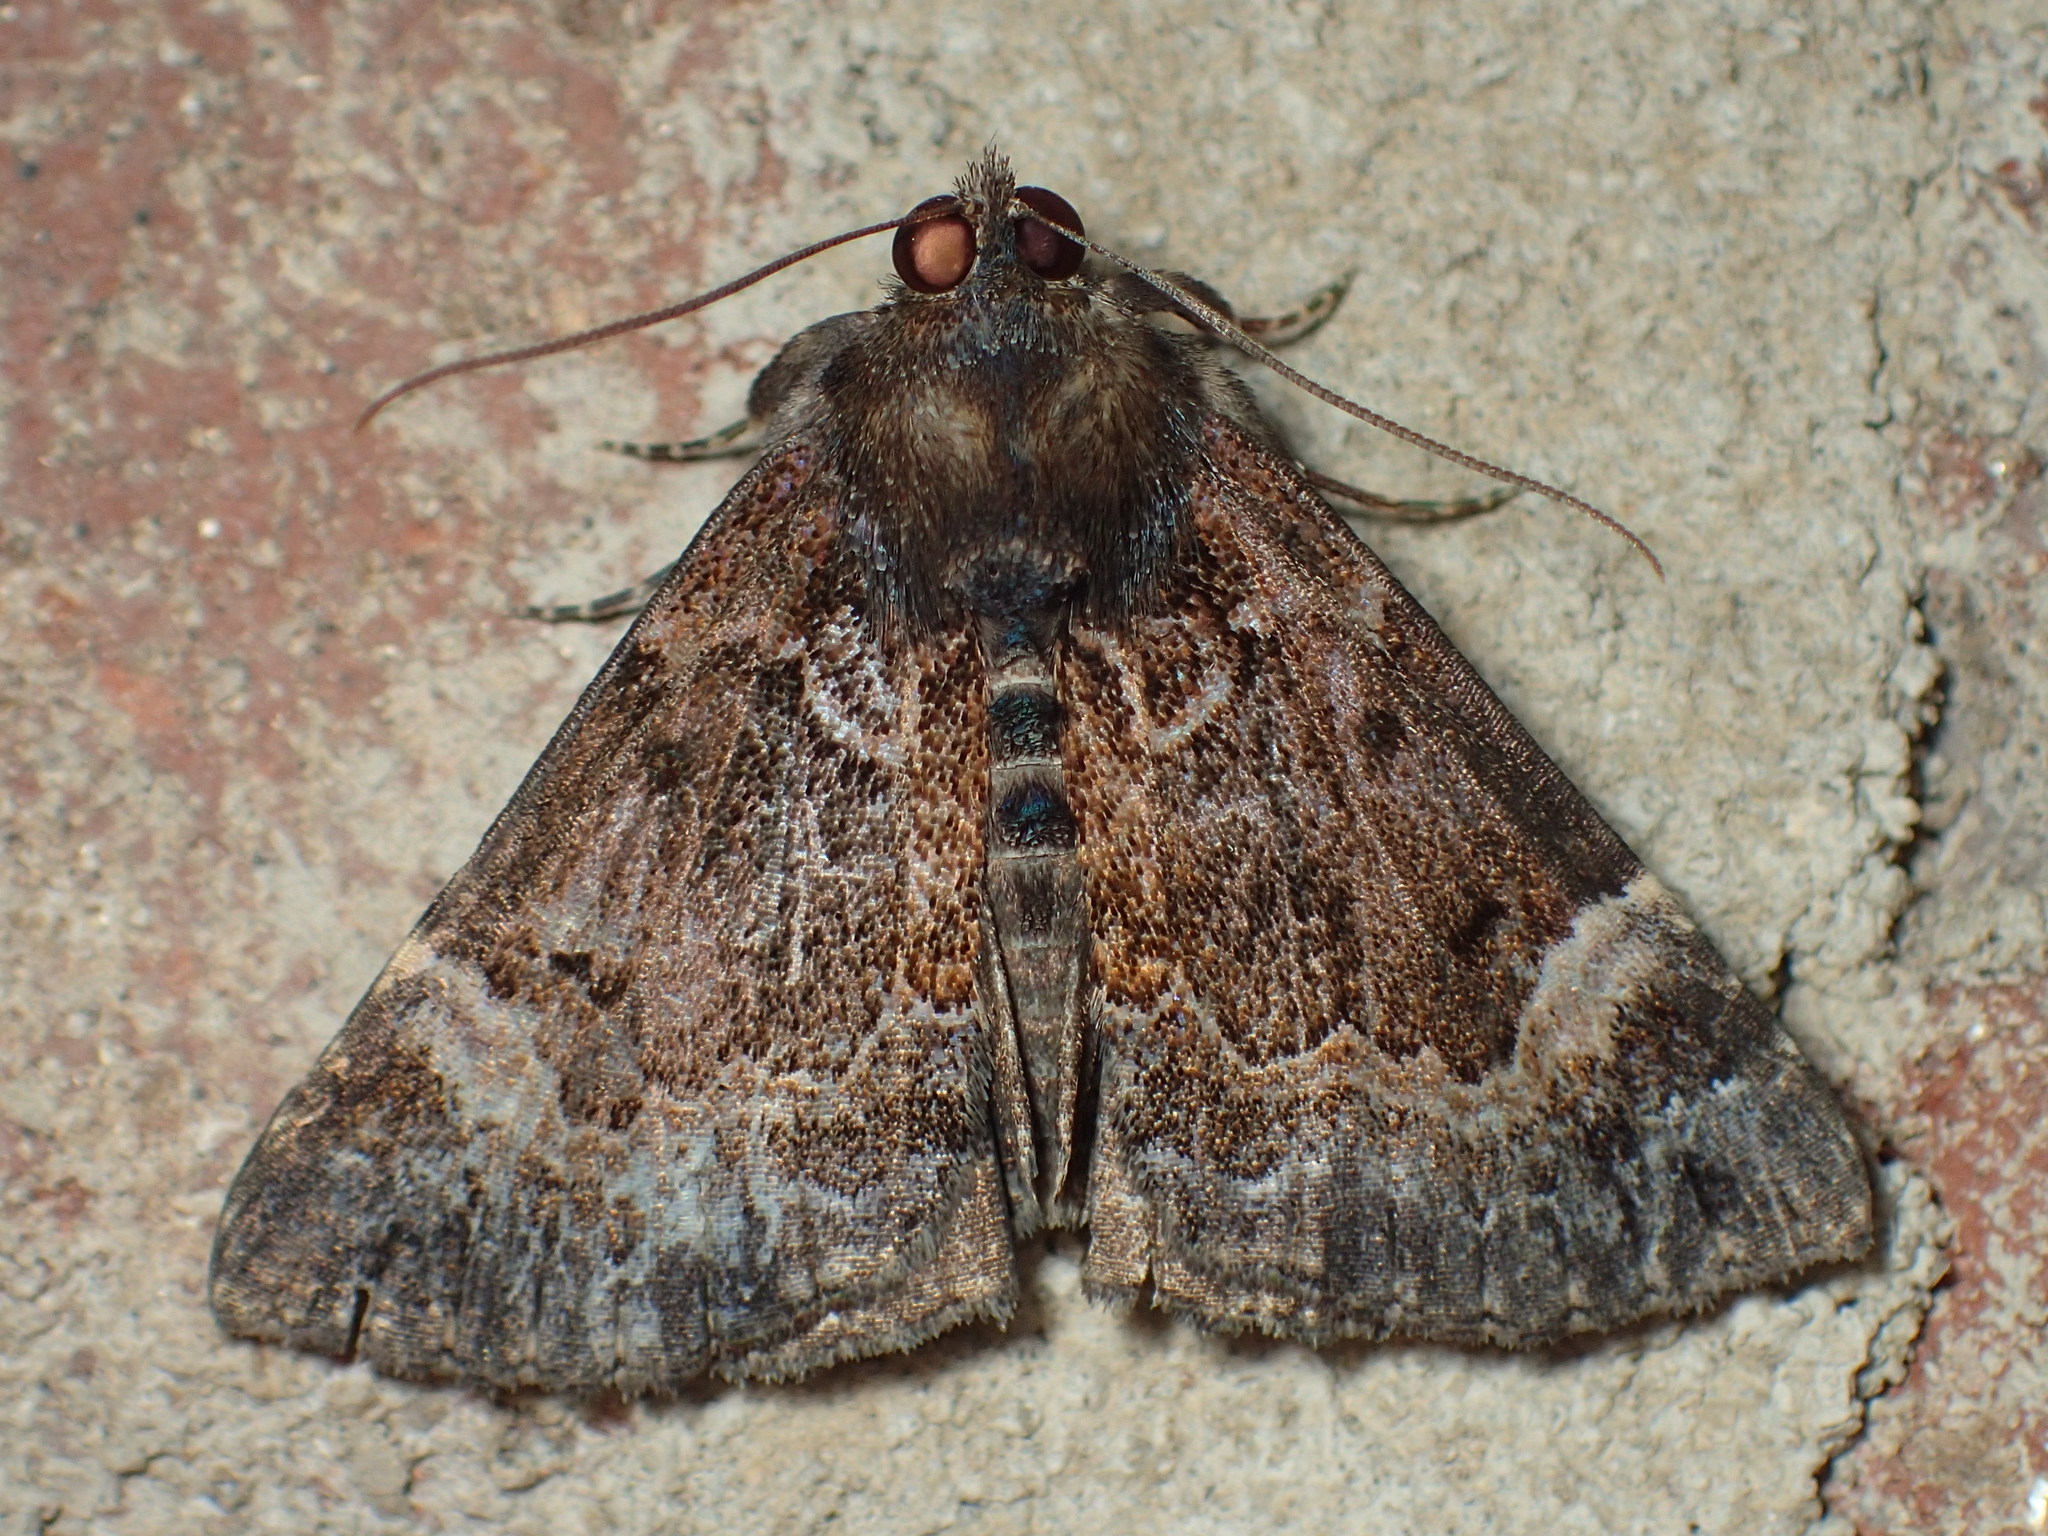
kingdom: Animalia
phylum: Arthropoda
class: Insecta
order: Lepidoptera
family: Erebidae
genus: Hypena
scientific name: Hypena palparia
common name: Mottled bomolocha moth
